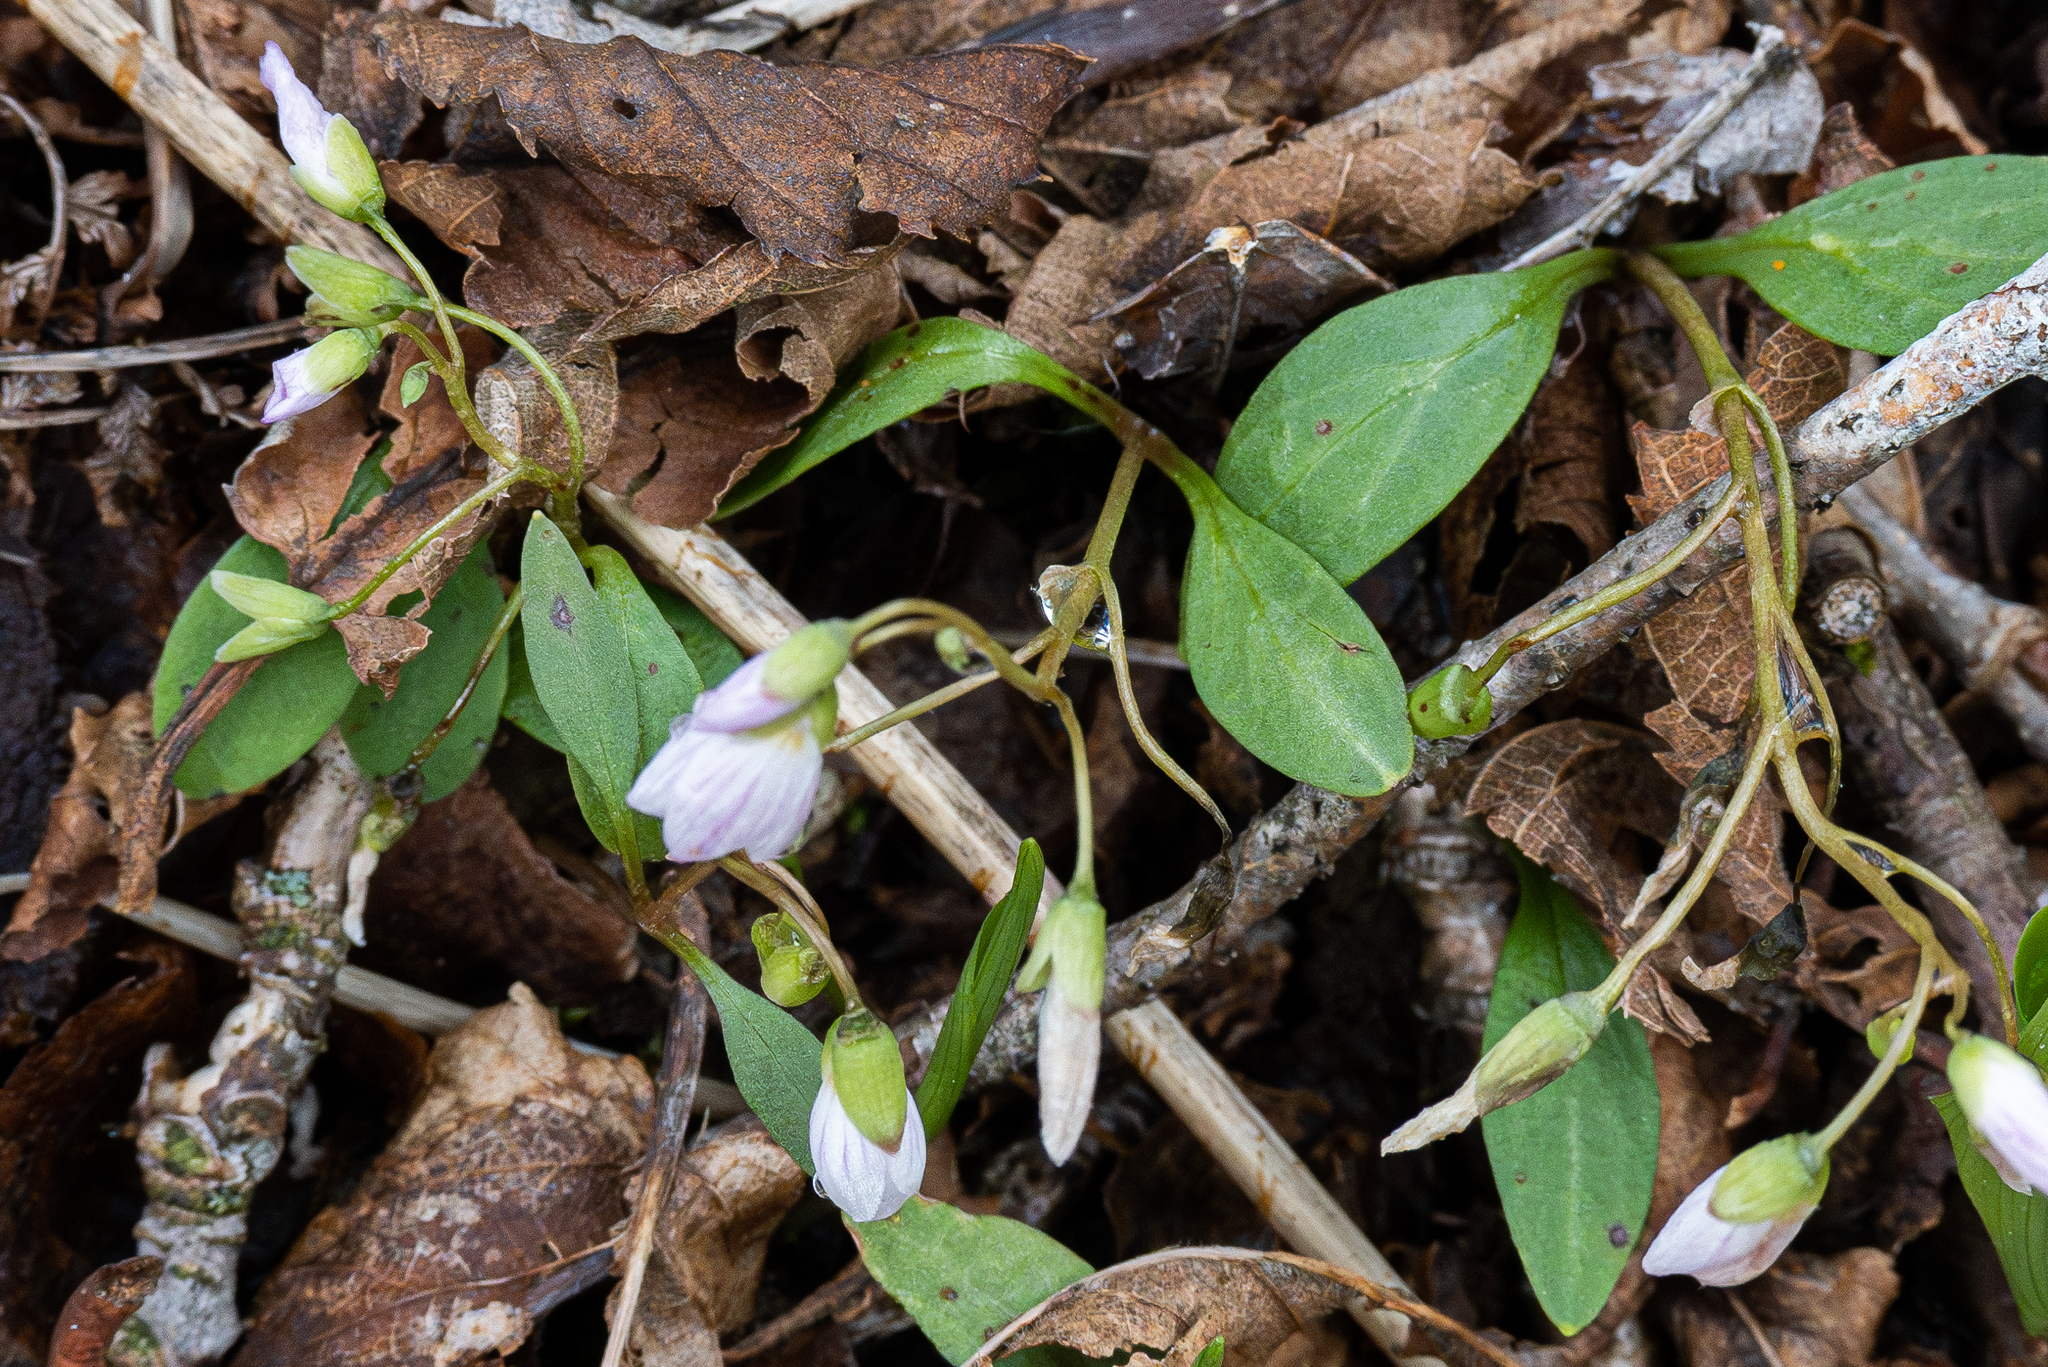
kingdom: Plantae
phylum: Tracheophyta
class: Magnoliopsida
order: Caryophyllales
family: Montiaceae
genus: Claytonia
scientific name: Claytonia caroliniana
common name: Carolina spring beauty
